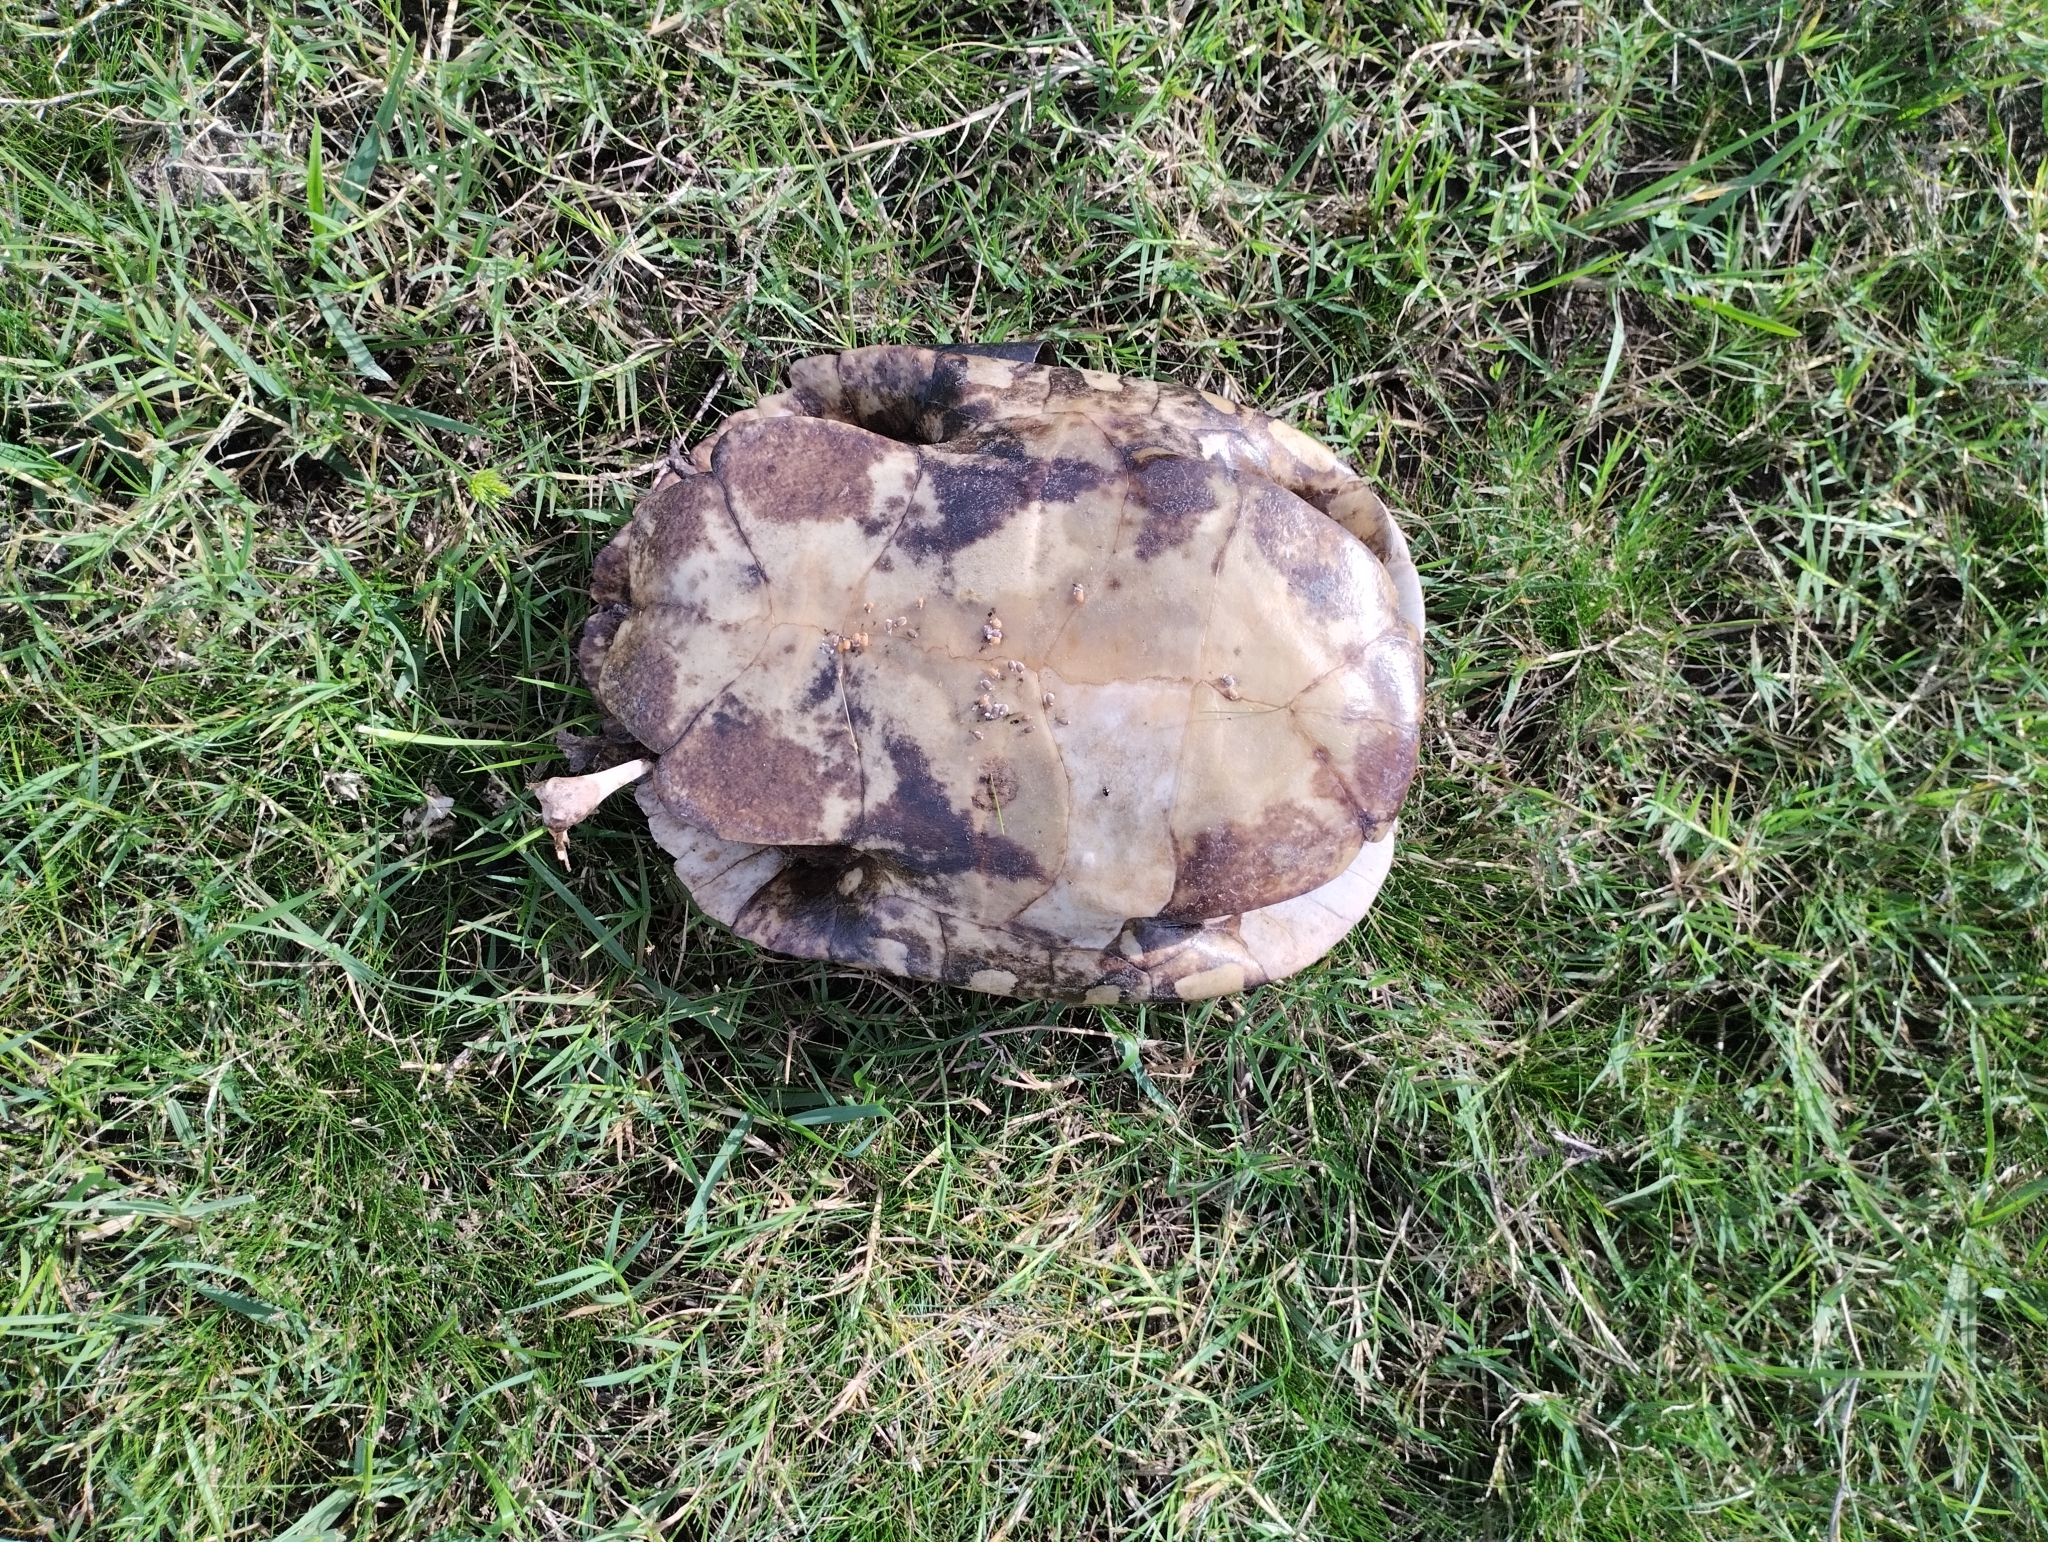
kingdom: Animalia
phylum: Chordata
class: Testudines
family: Emydidae
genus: Trachemys
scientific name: Trachemys dorbigni
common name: Black-bellied slider
